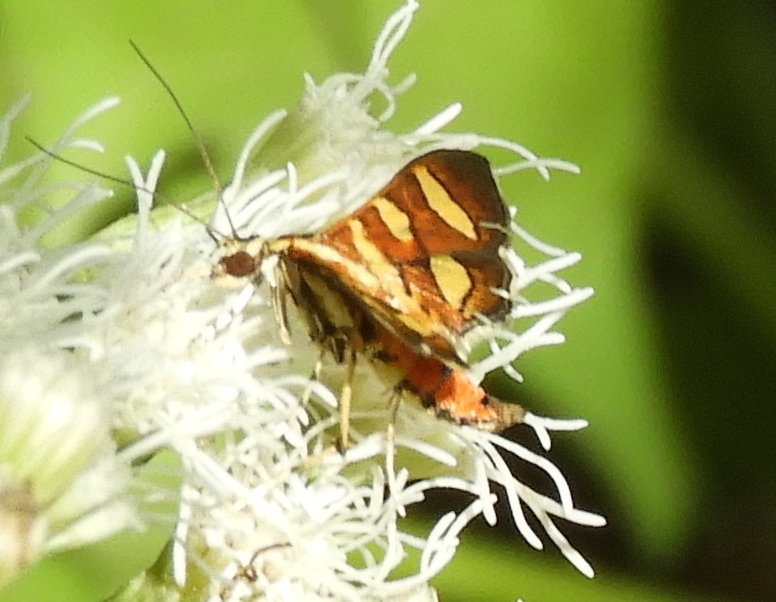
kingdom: Animalia
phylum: Arthropoda
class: Insecta
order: Lepidoptera
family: Crambidae
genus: Syngamia
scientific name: Syngamia florella
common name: Orange-spotted flower moth
